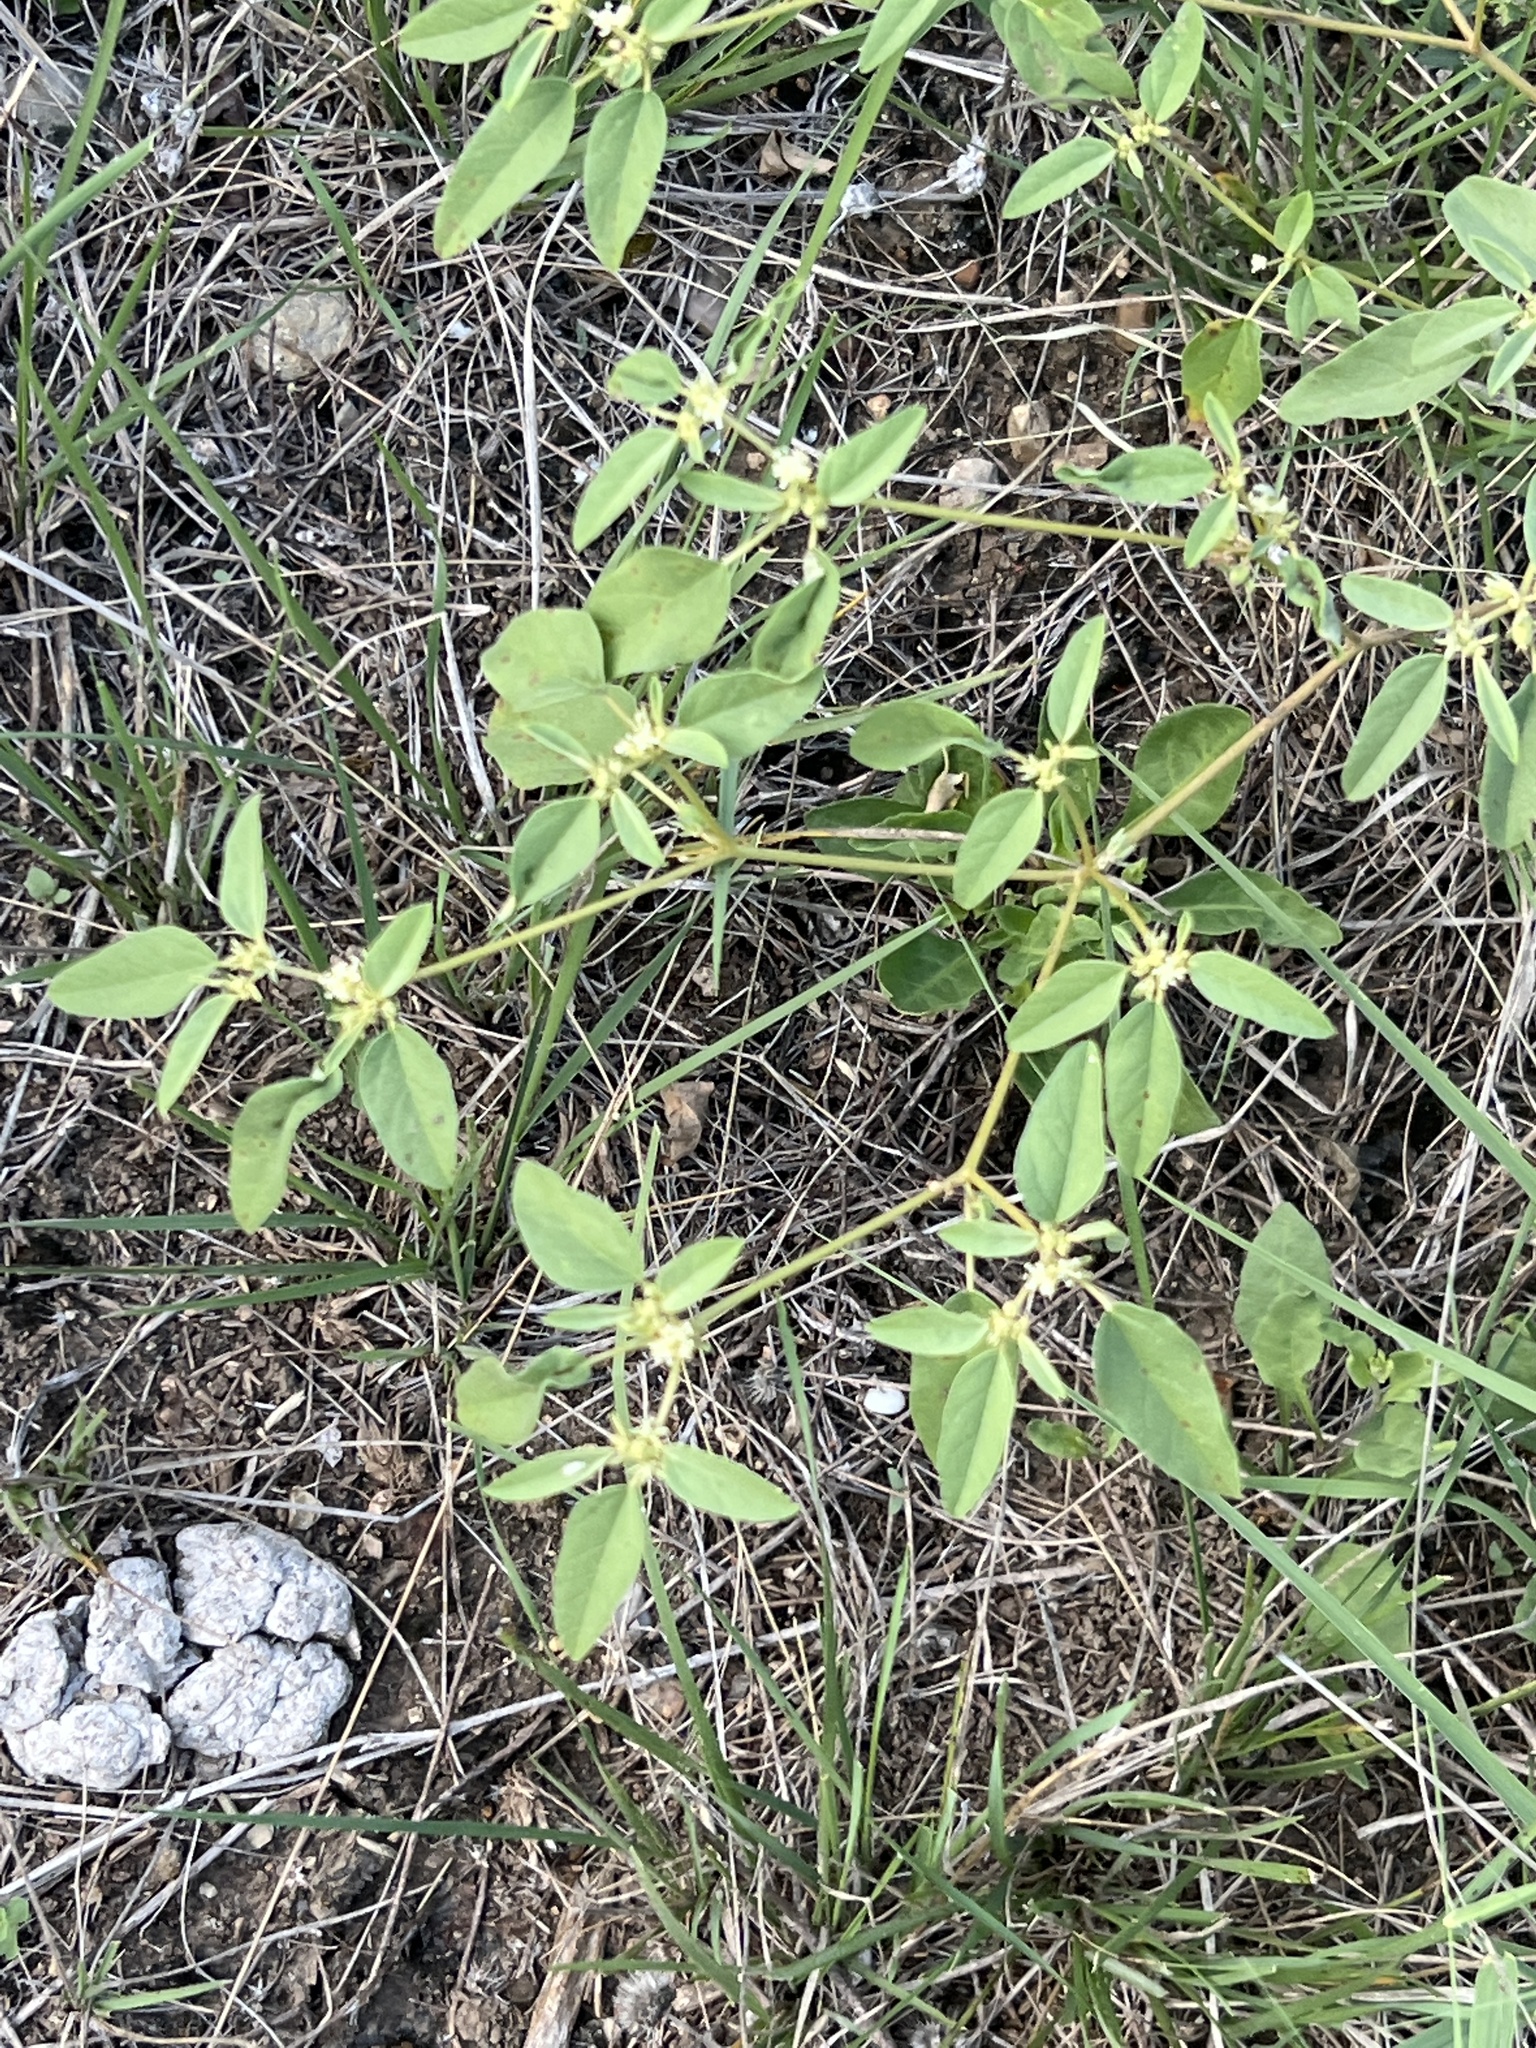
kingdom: Plantae
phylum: Tracheophyta
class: Magnoliopsida
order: Malpighiales
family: Euphorbiaceae
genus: Croton
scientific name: Croton monanthogynus
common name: One-seed croton
